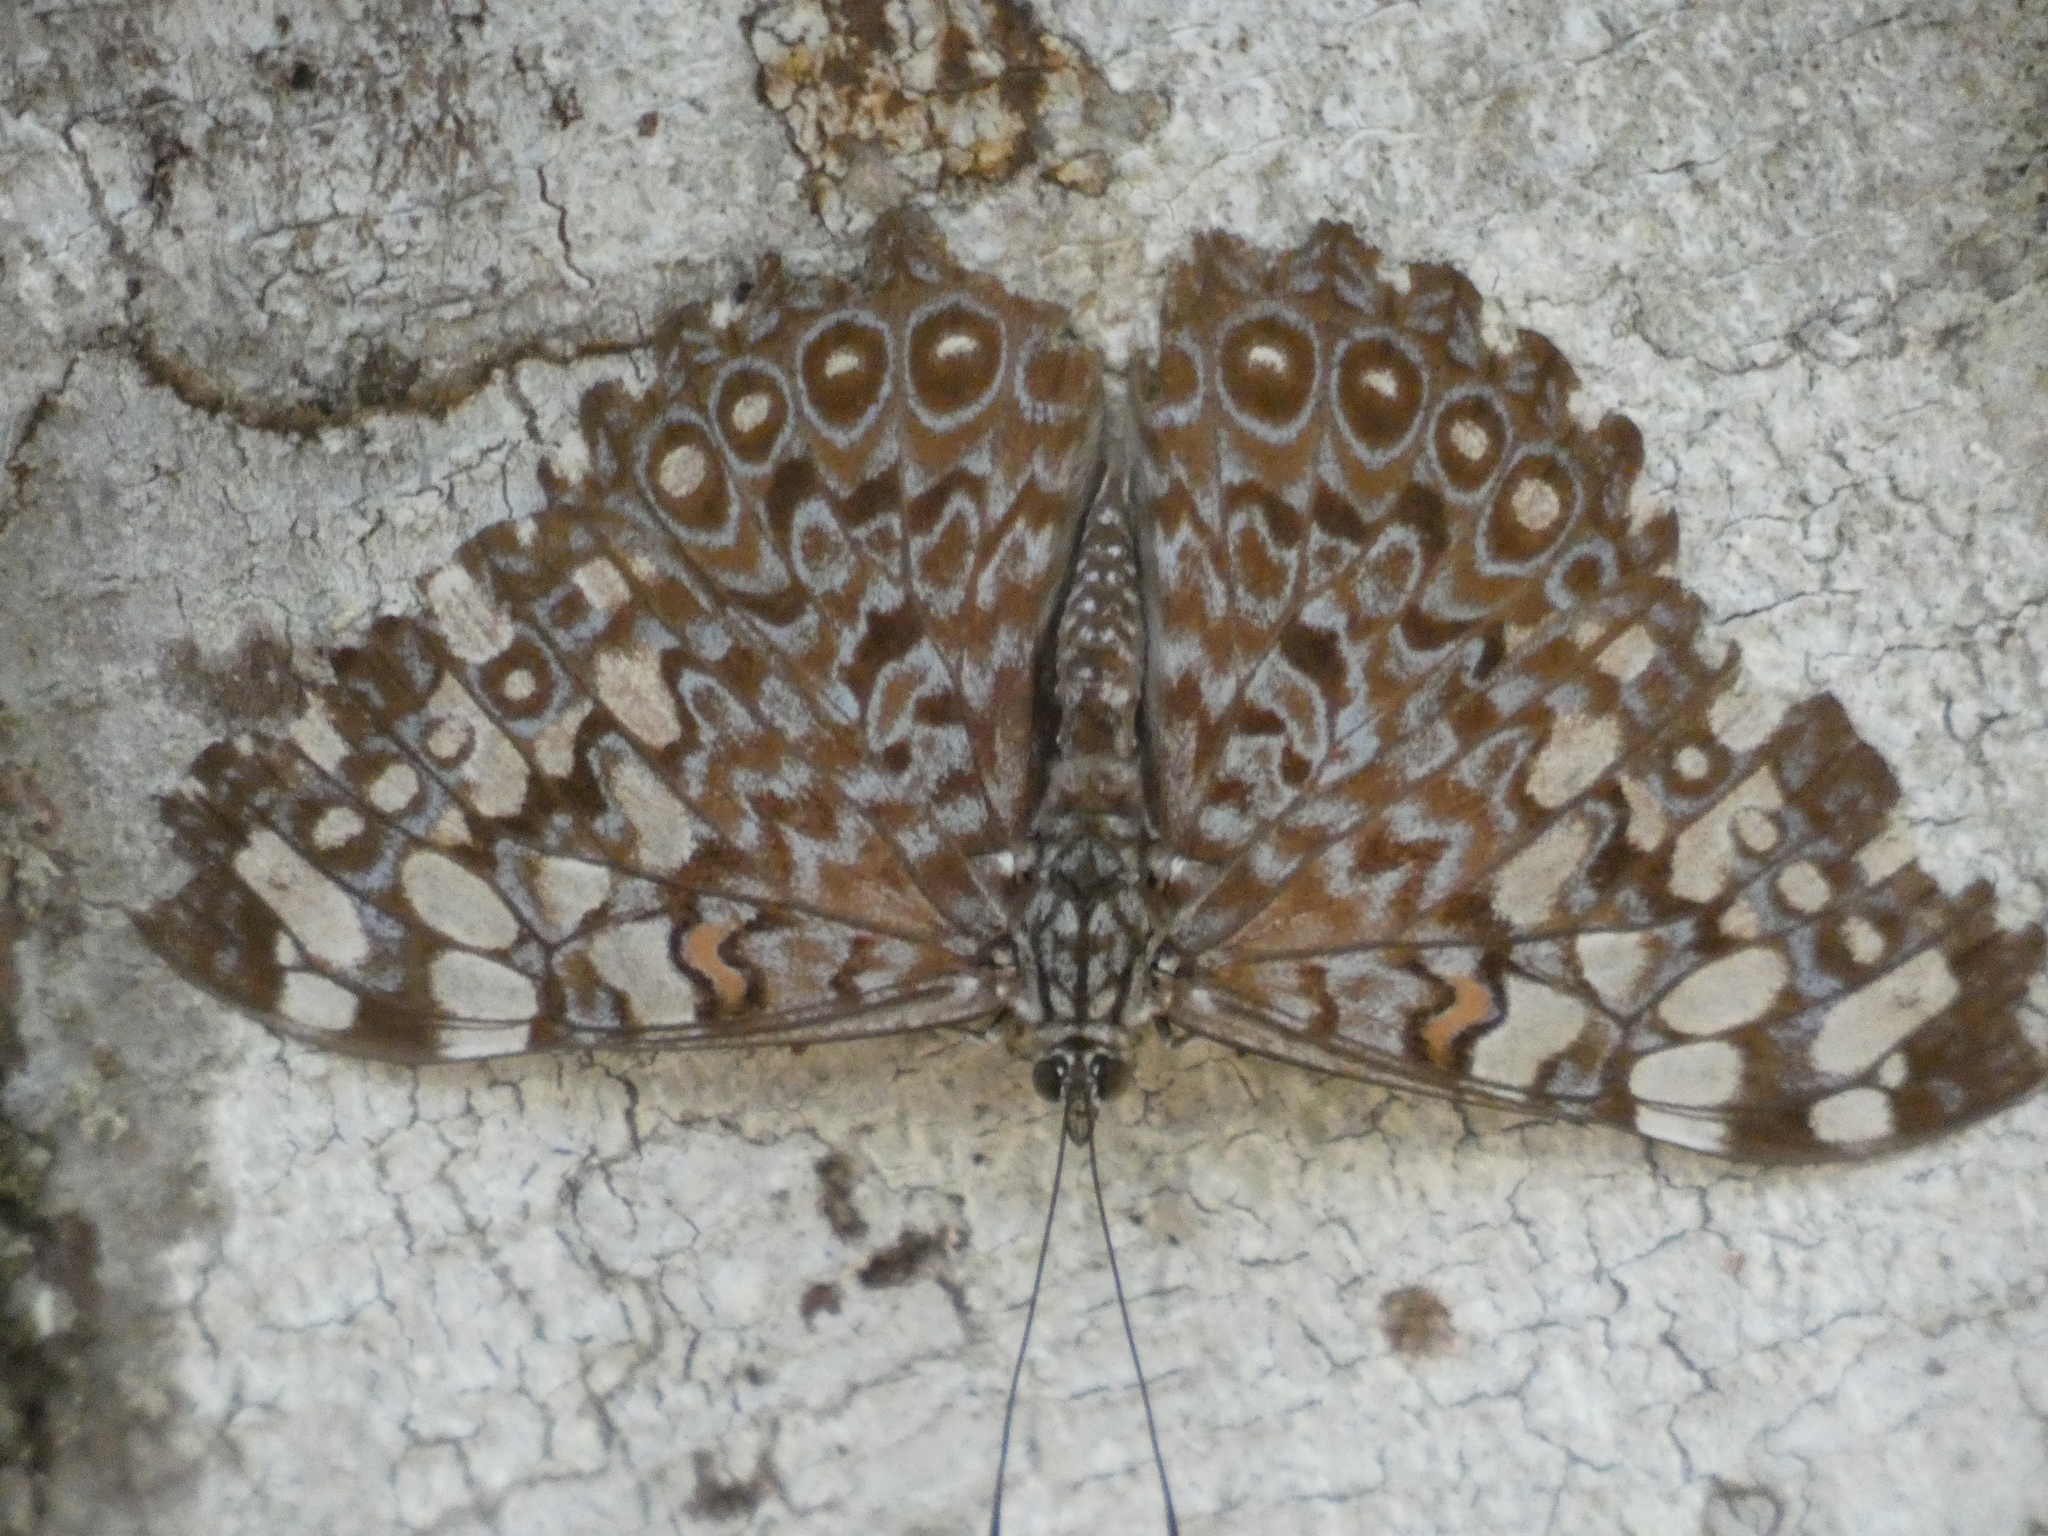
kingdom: Animalia
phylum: Arthropoda
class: Insecta
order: Lepidoptera
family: Nymphalidae
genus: Hamadryas
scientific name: Hamadryas feronia
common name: Variable cracker
